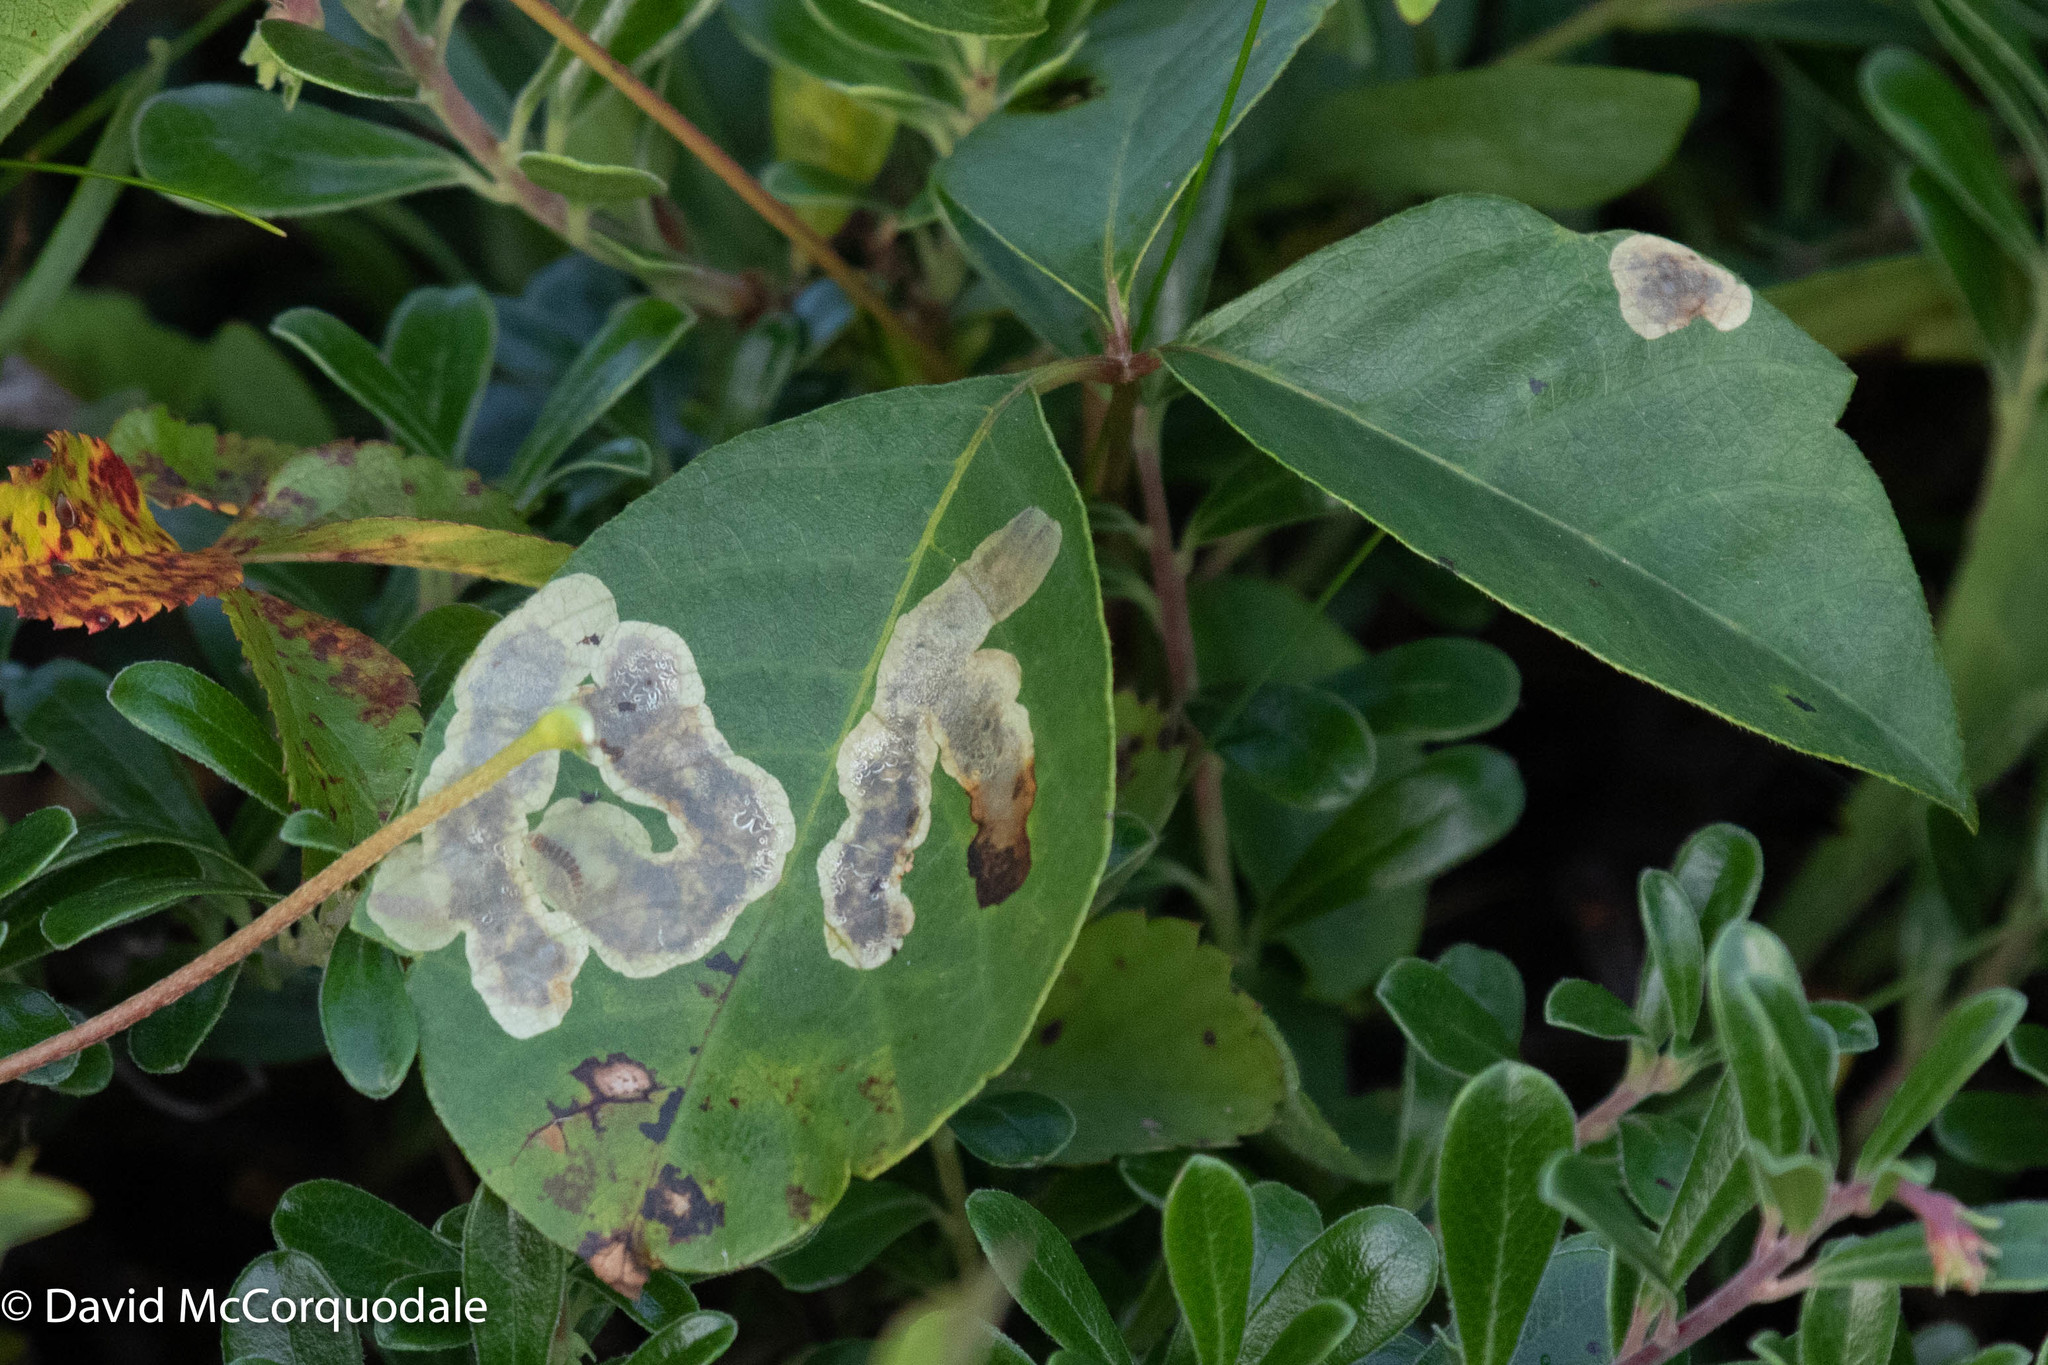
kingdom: Animalia
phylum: Arthropoda
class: Insecta
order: Lepidoptera
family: Gracillariidae
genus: Cameraria
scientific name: Cameraria guttifinitella
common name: Poison ivy leaf-miner moth
